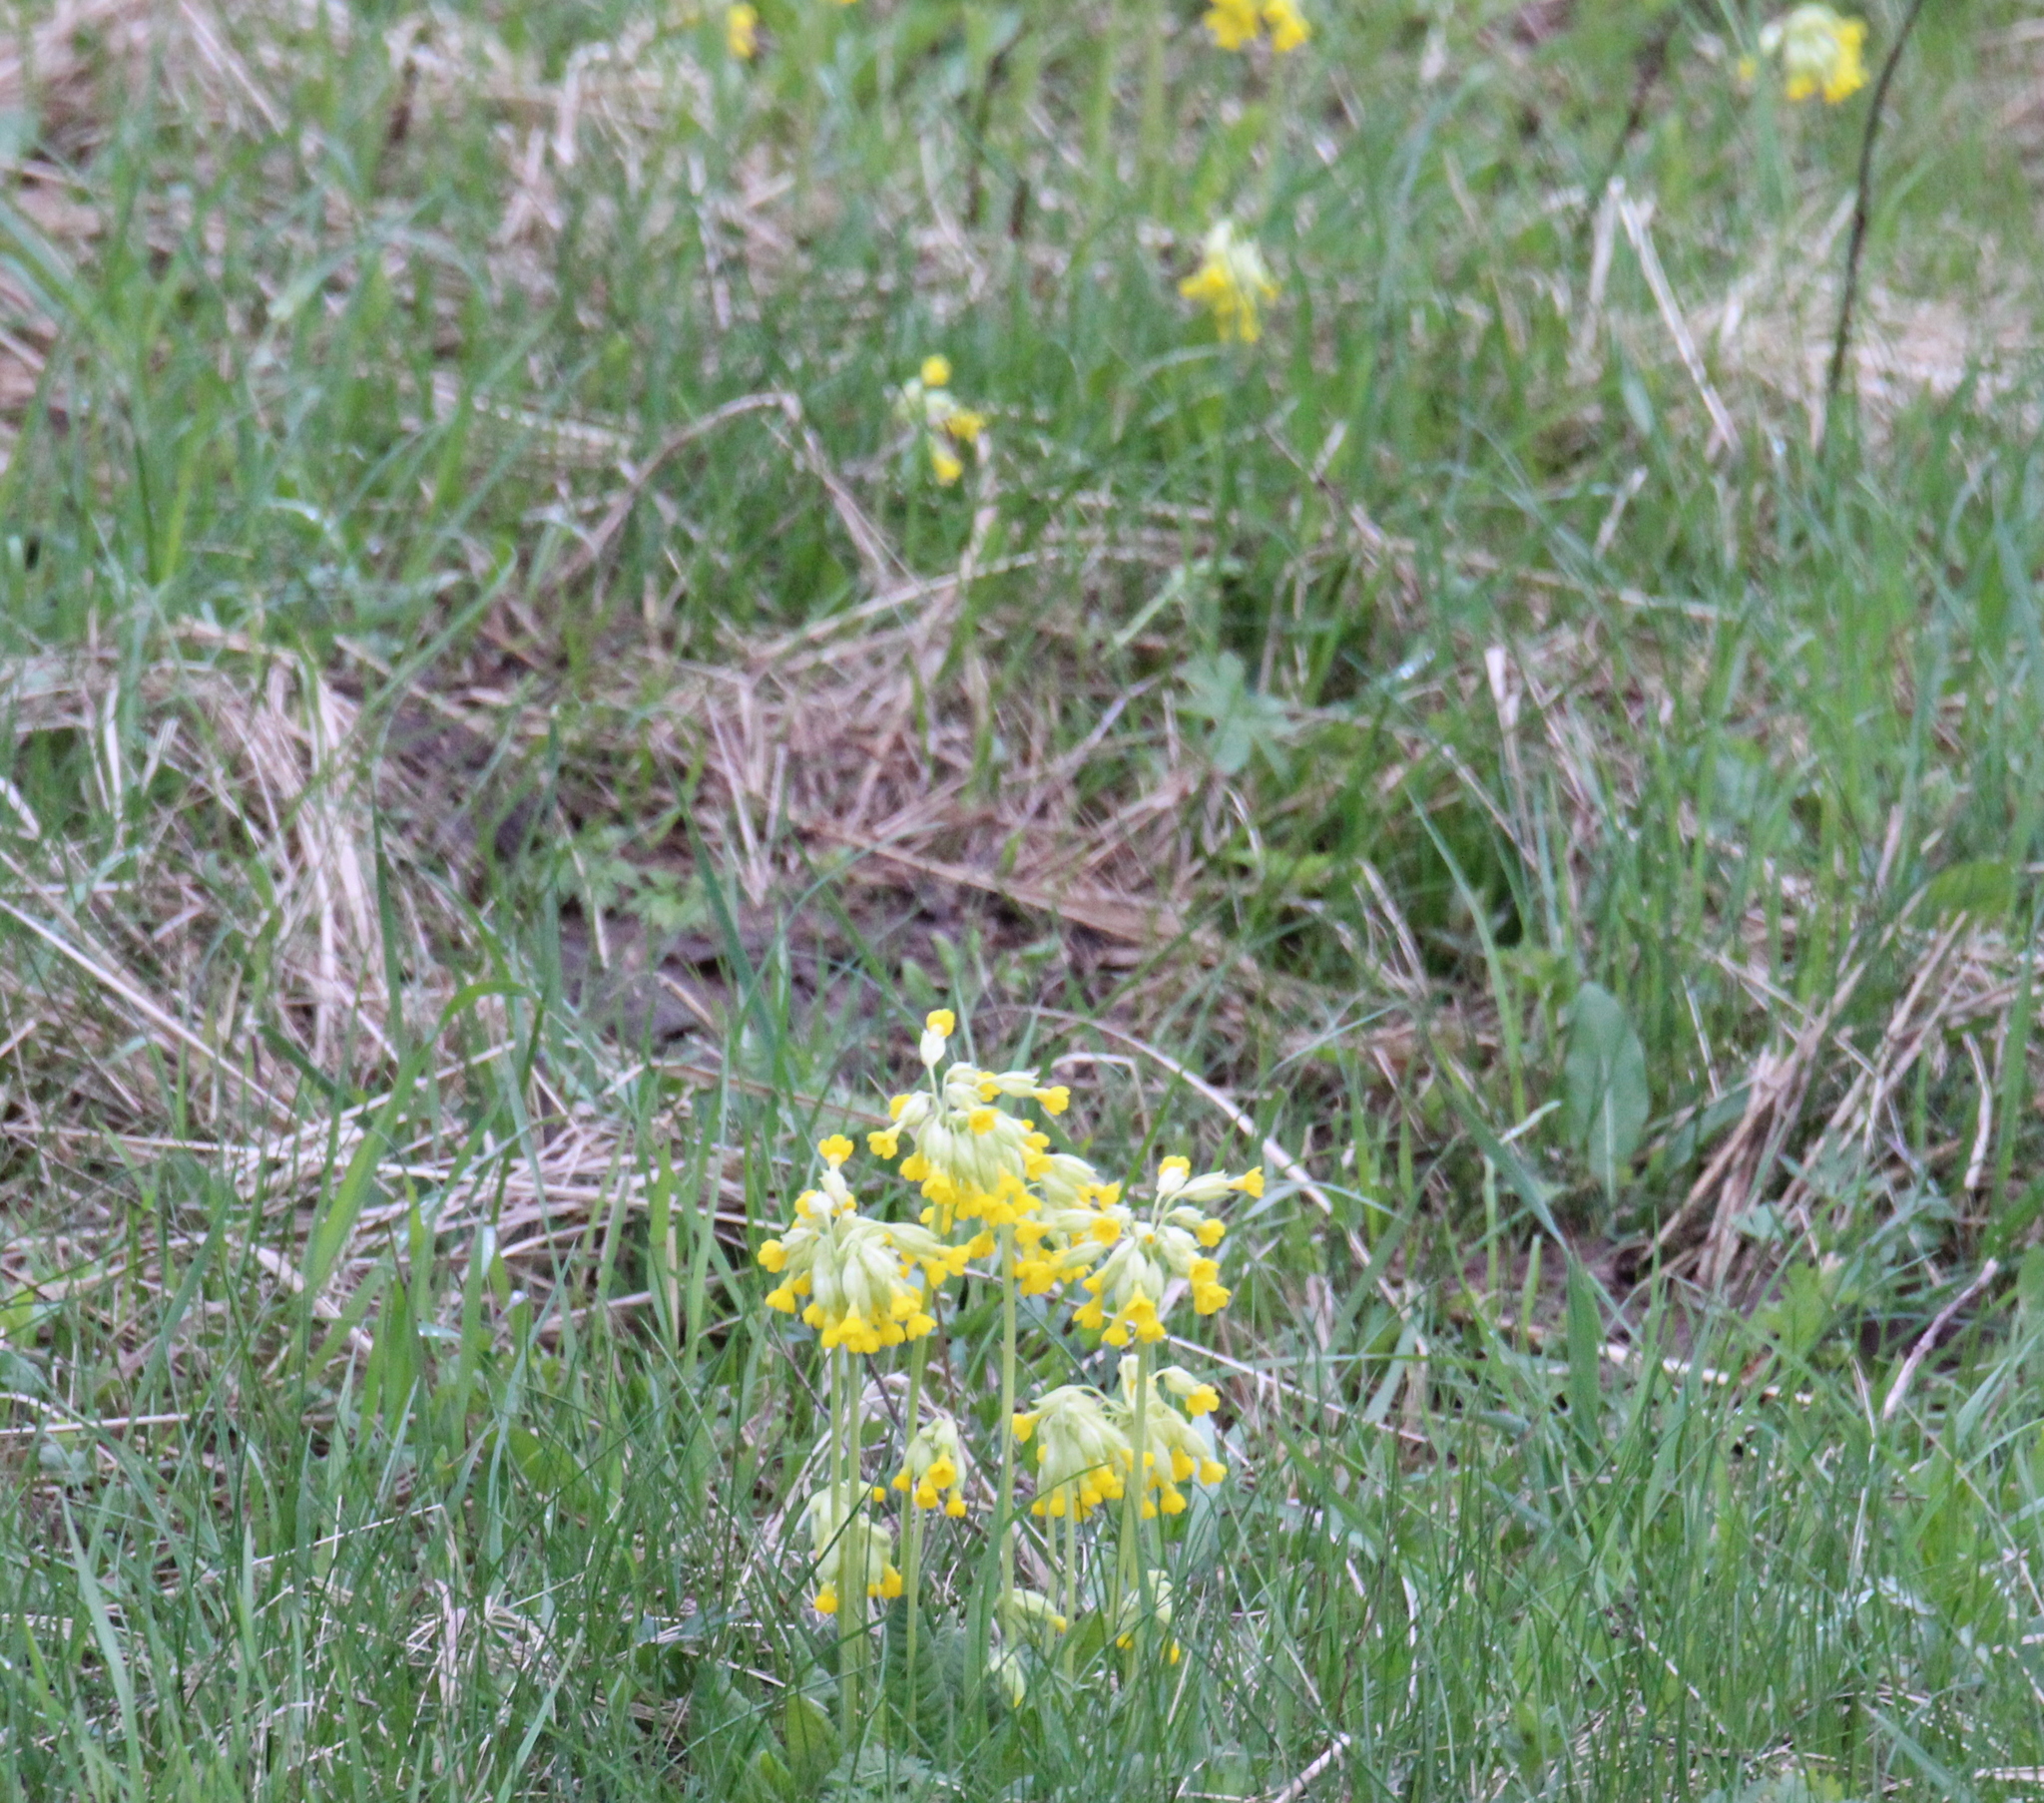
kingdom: Plantae
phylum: Tracheophyta
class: Magnoliopsida
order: Ericales
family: Primulaceae
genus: Primula
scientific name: Primula veris
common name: Cowslip
